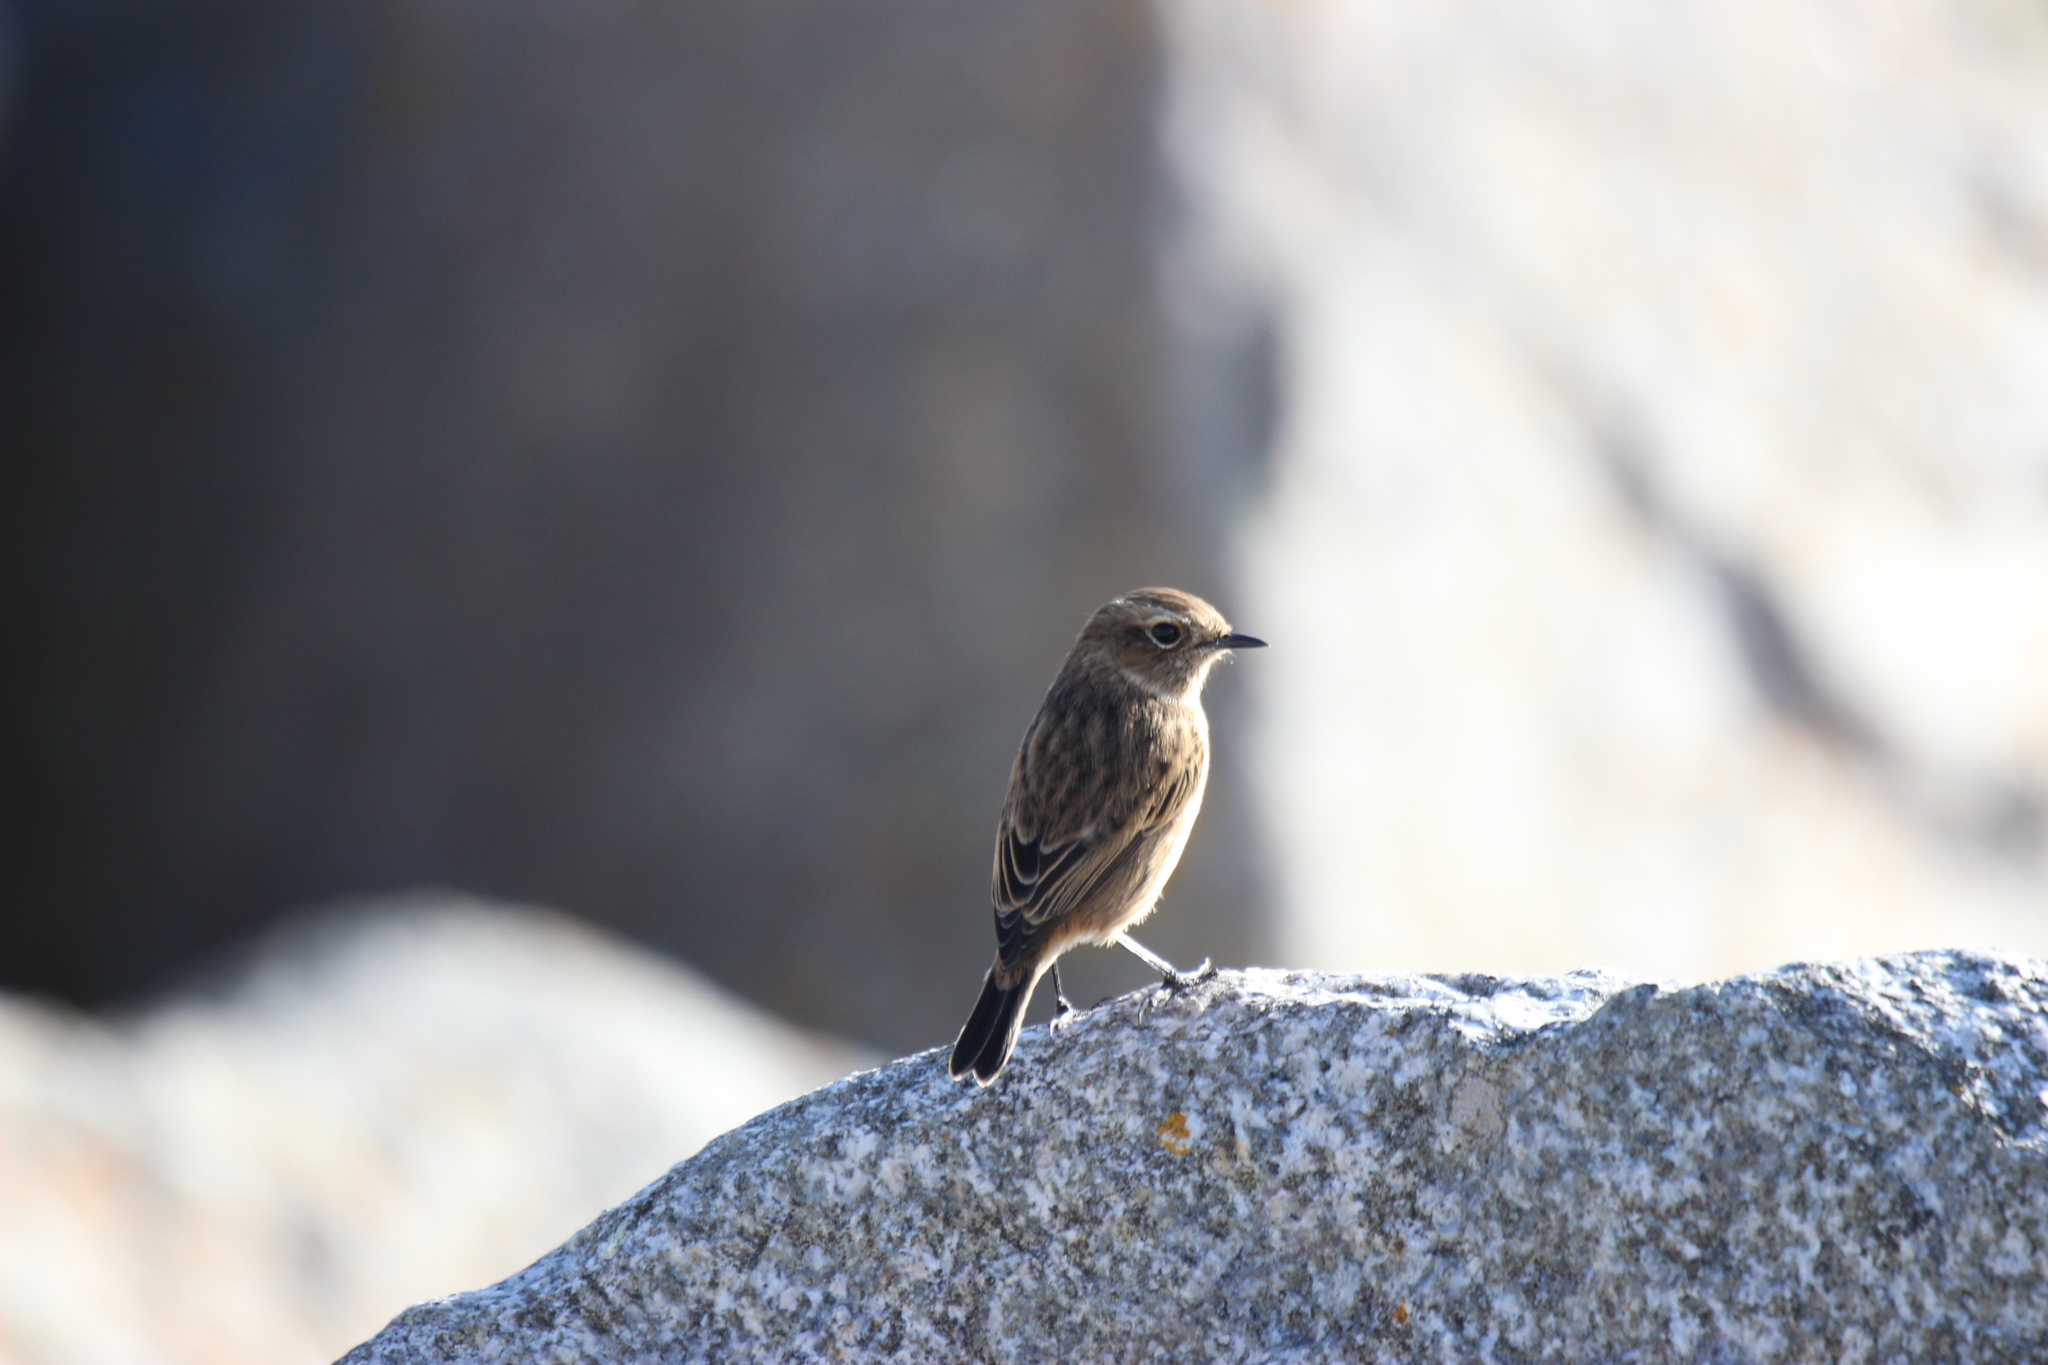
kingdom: Animalia
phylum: Chordata
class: Aves
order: Passeriformes
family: Muscicapidae
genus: Saxicola
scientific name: Saxicola rubicola
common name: European stonechat
